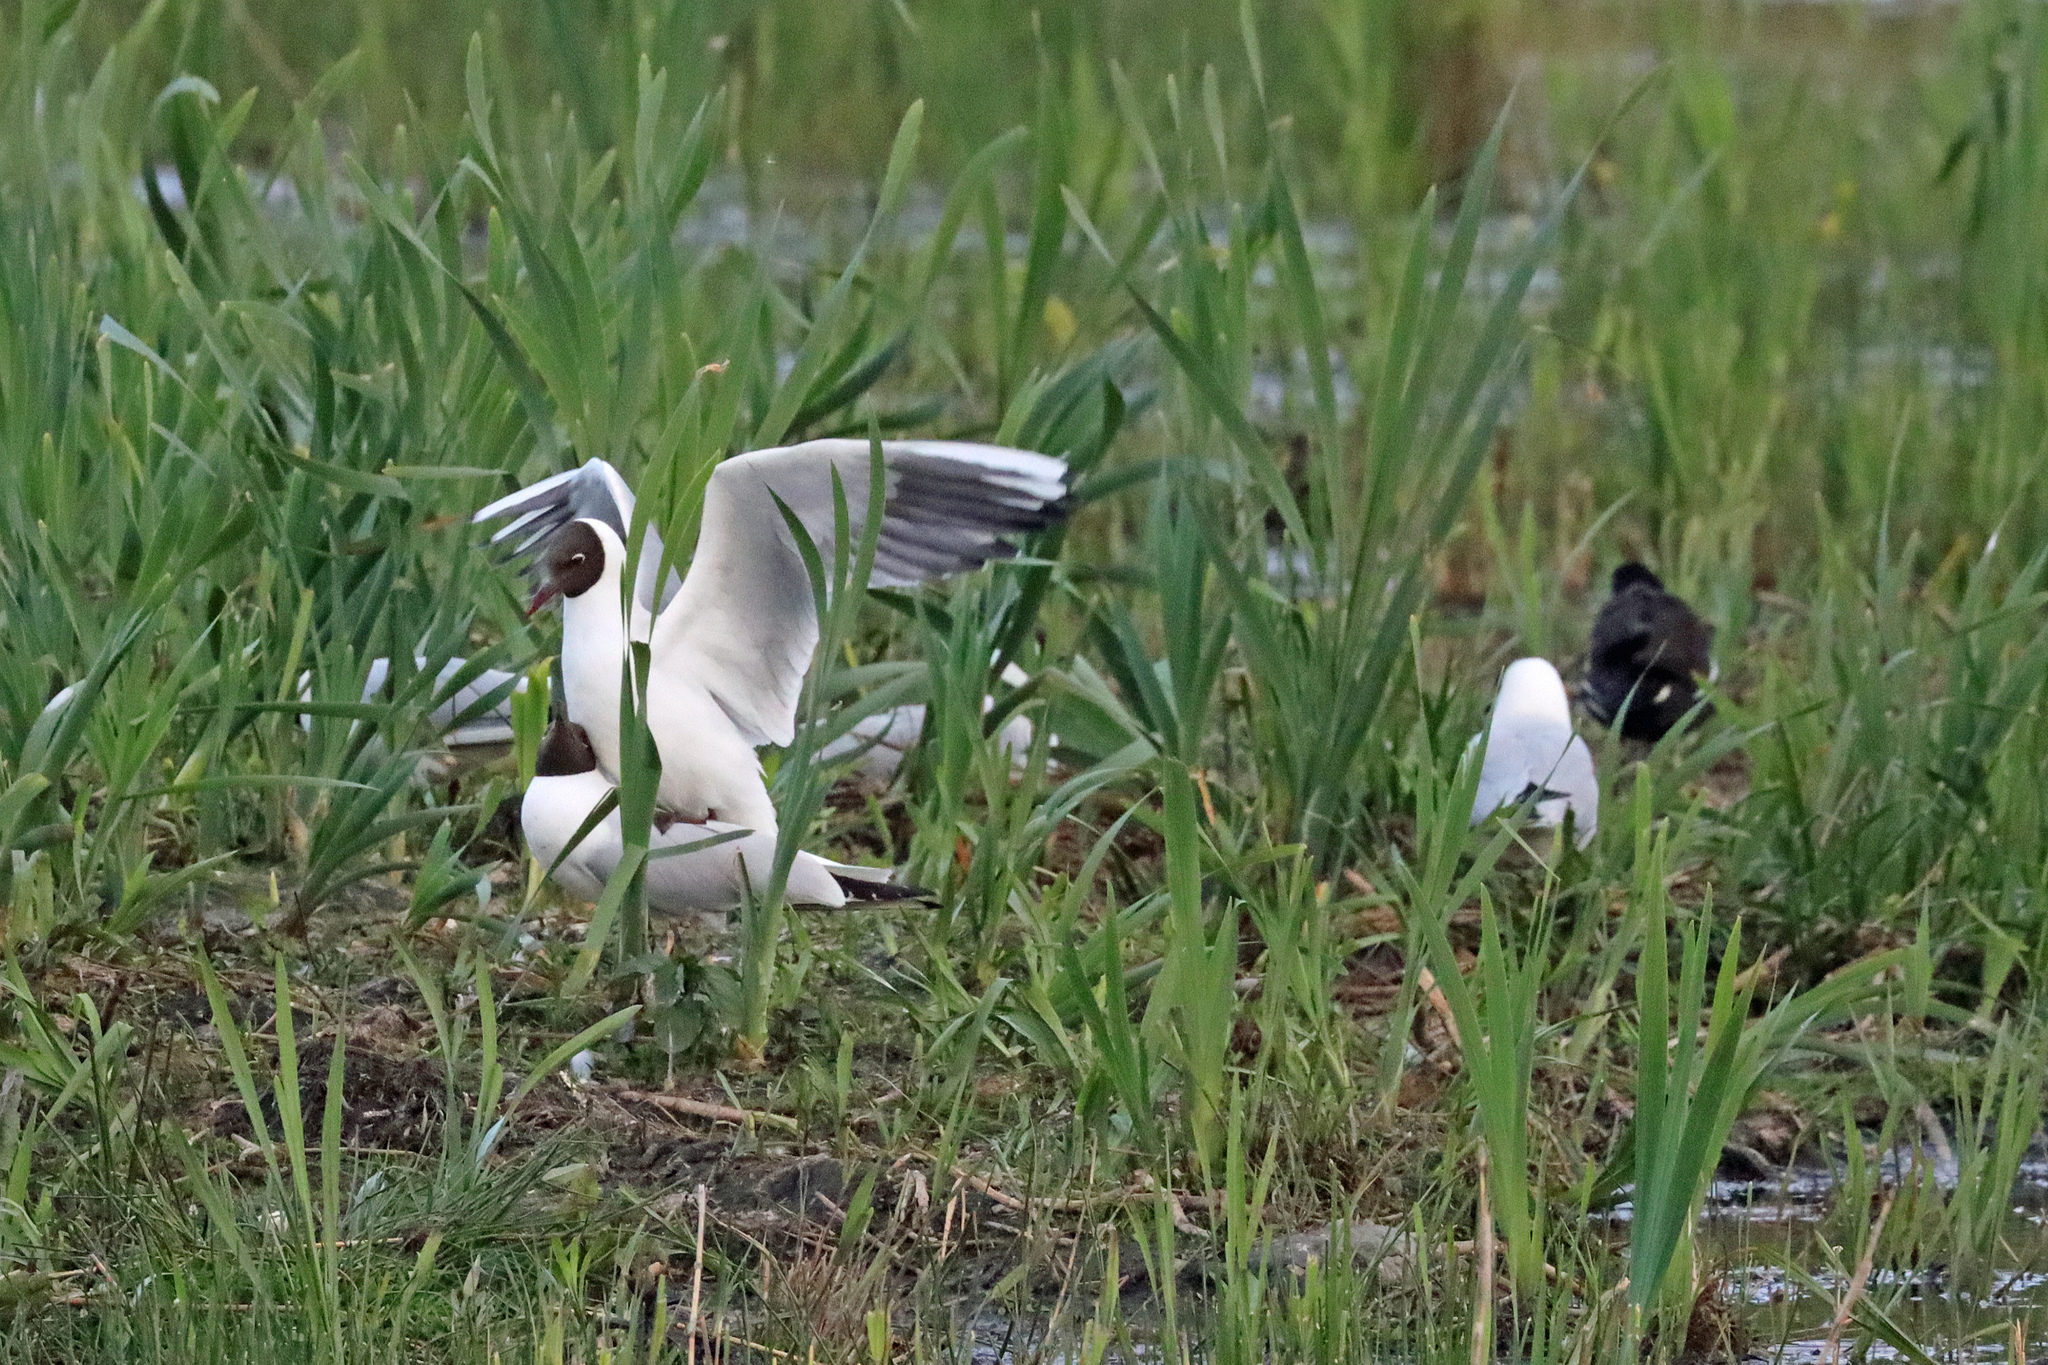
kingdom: Animalia
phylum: Chordata
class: Aves
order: Charadriiformes
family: Laridae
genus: Chroicocephalus
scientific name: Chroicocephalus ridibundus
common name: Black-headed gull
